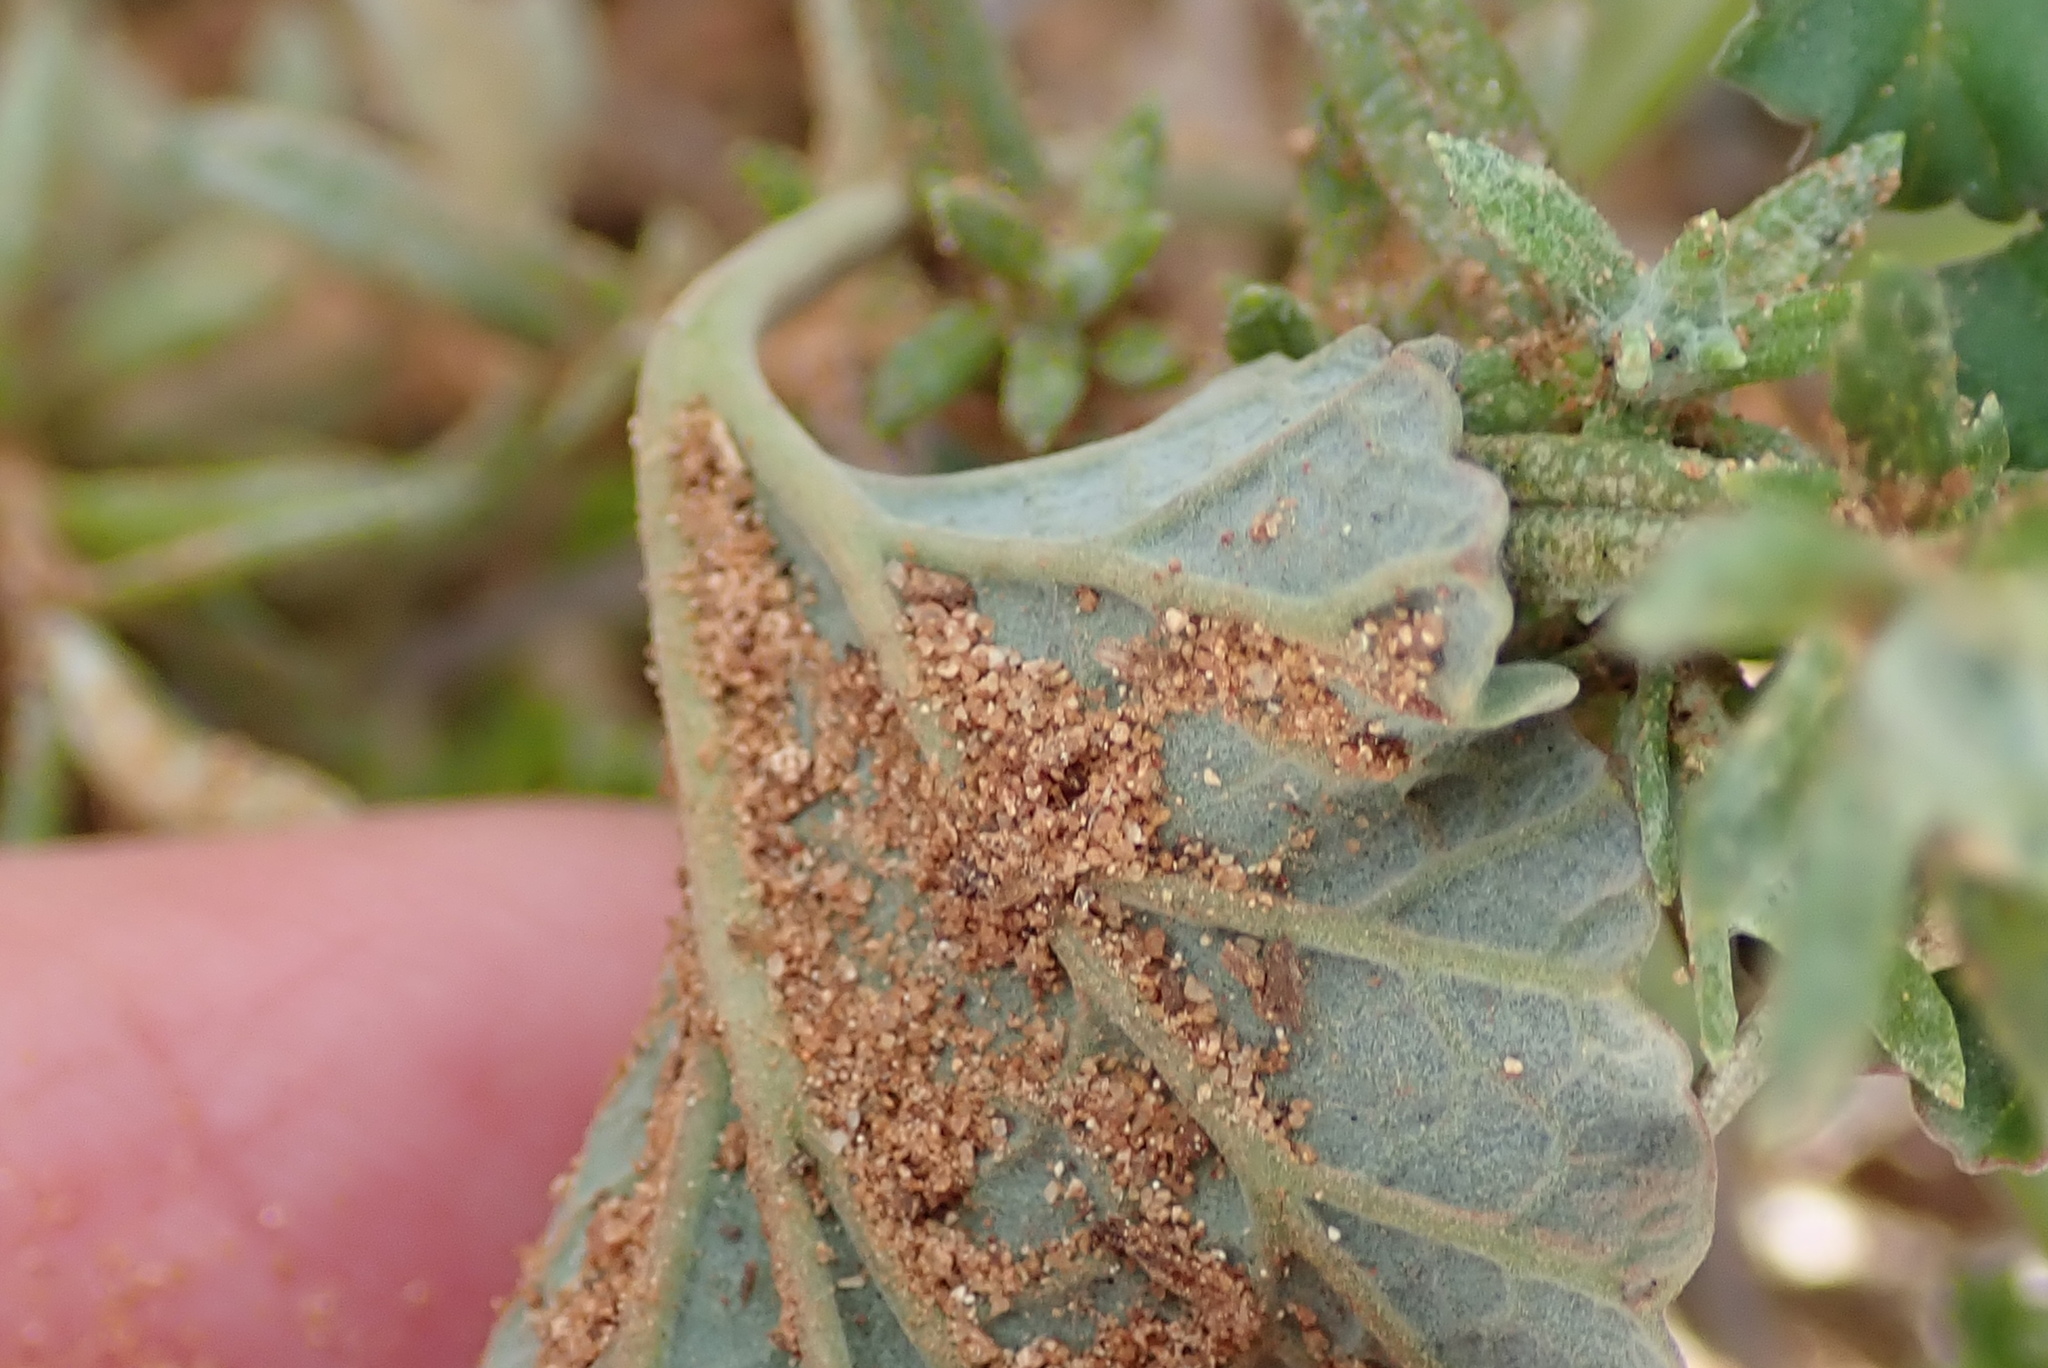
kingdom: Plantae
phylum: Tracheophyta
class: Magnoliopsida
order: Geraniales
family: Geraniaceae
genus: Pelargonium
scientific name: Pelargonium reniforme
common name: Kidney-leaf pelargonium
